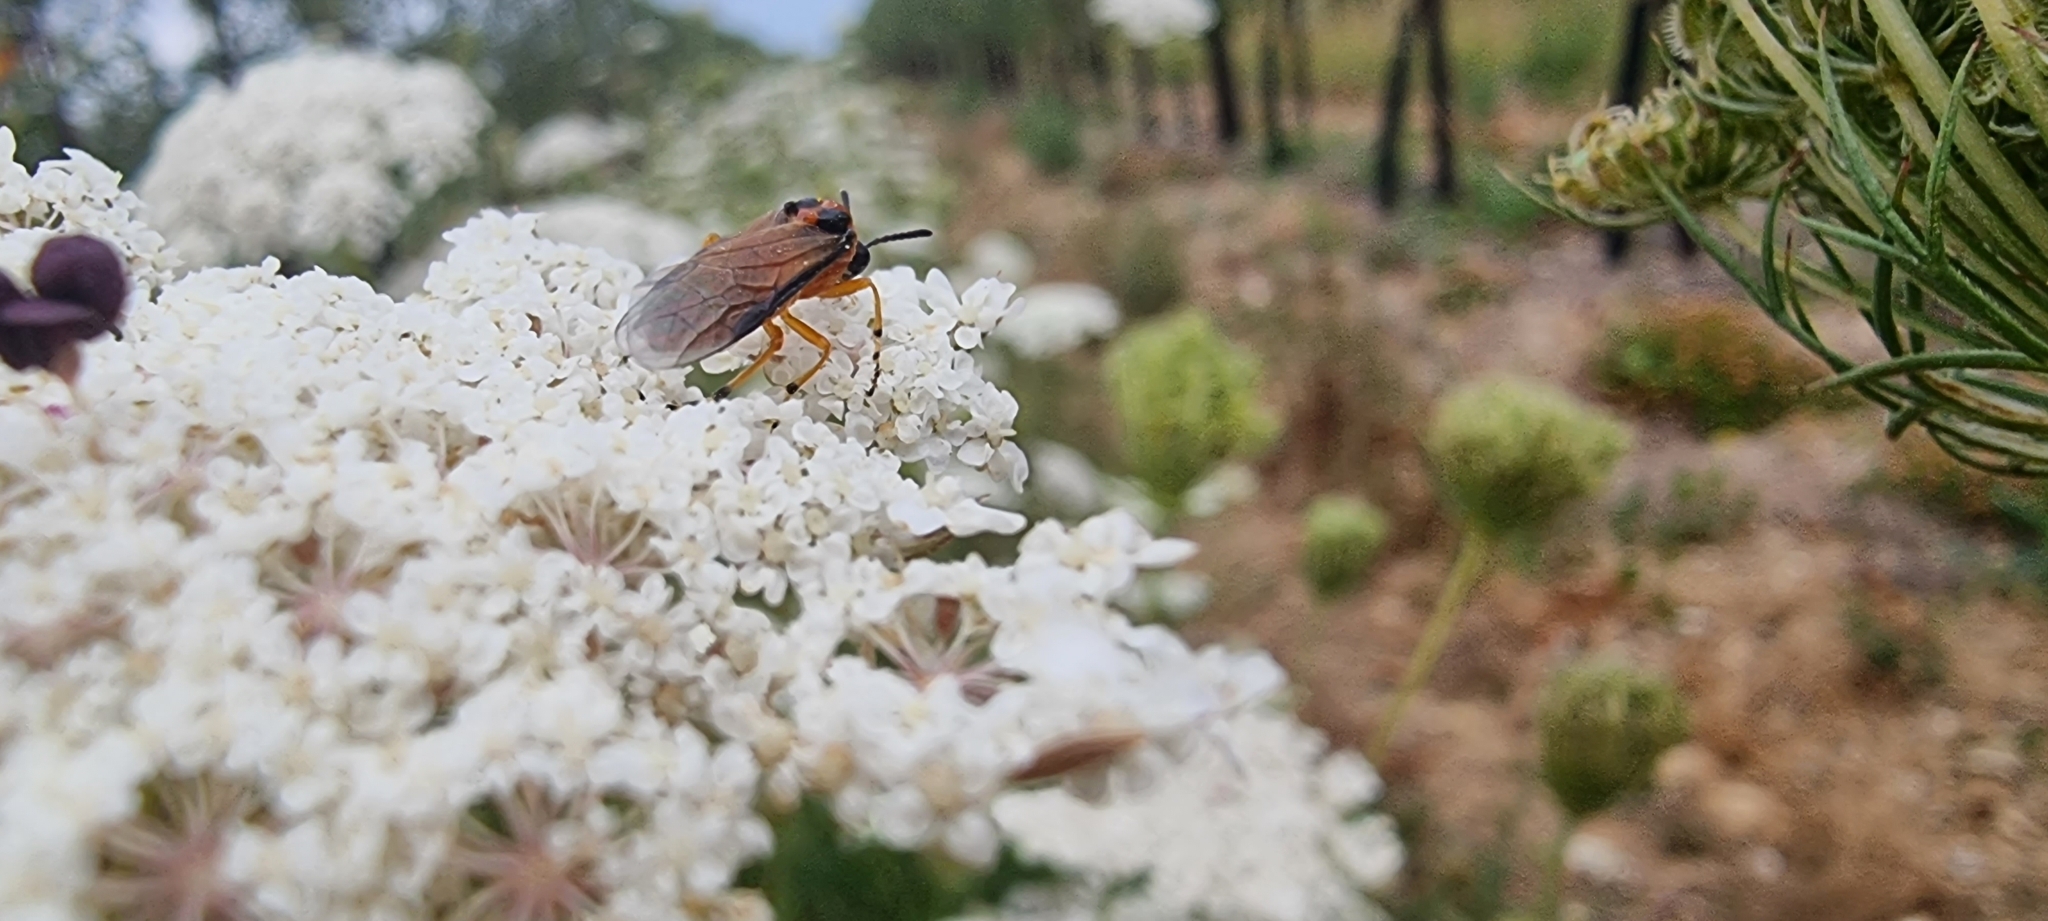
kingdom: Animalia
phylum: Arthropoda
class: Insecta
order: Hymenoptera
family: Tenthredinidae
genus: Athalia
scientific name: Athalia rosae
